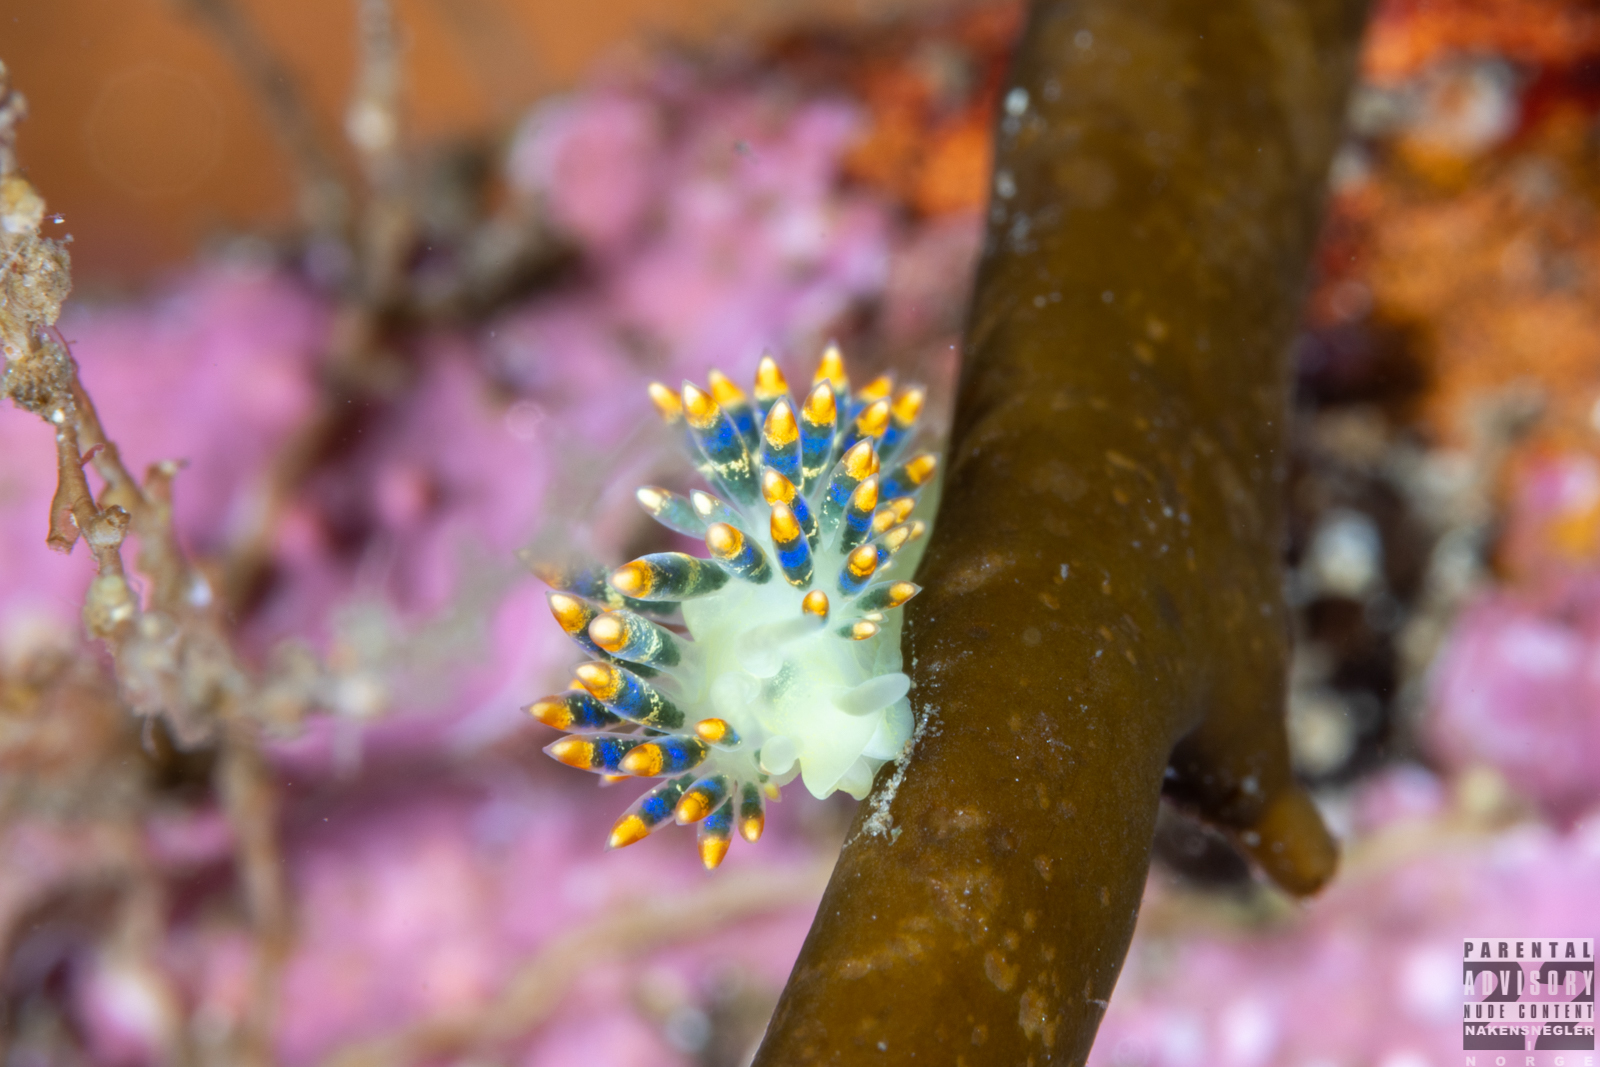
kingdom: Animalia
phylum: Mollusca
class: Gastropoda
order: Nudibranchia
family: Trinchesiidae
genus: Trinchesia
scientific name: Trinchesia cuanensis
